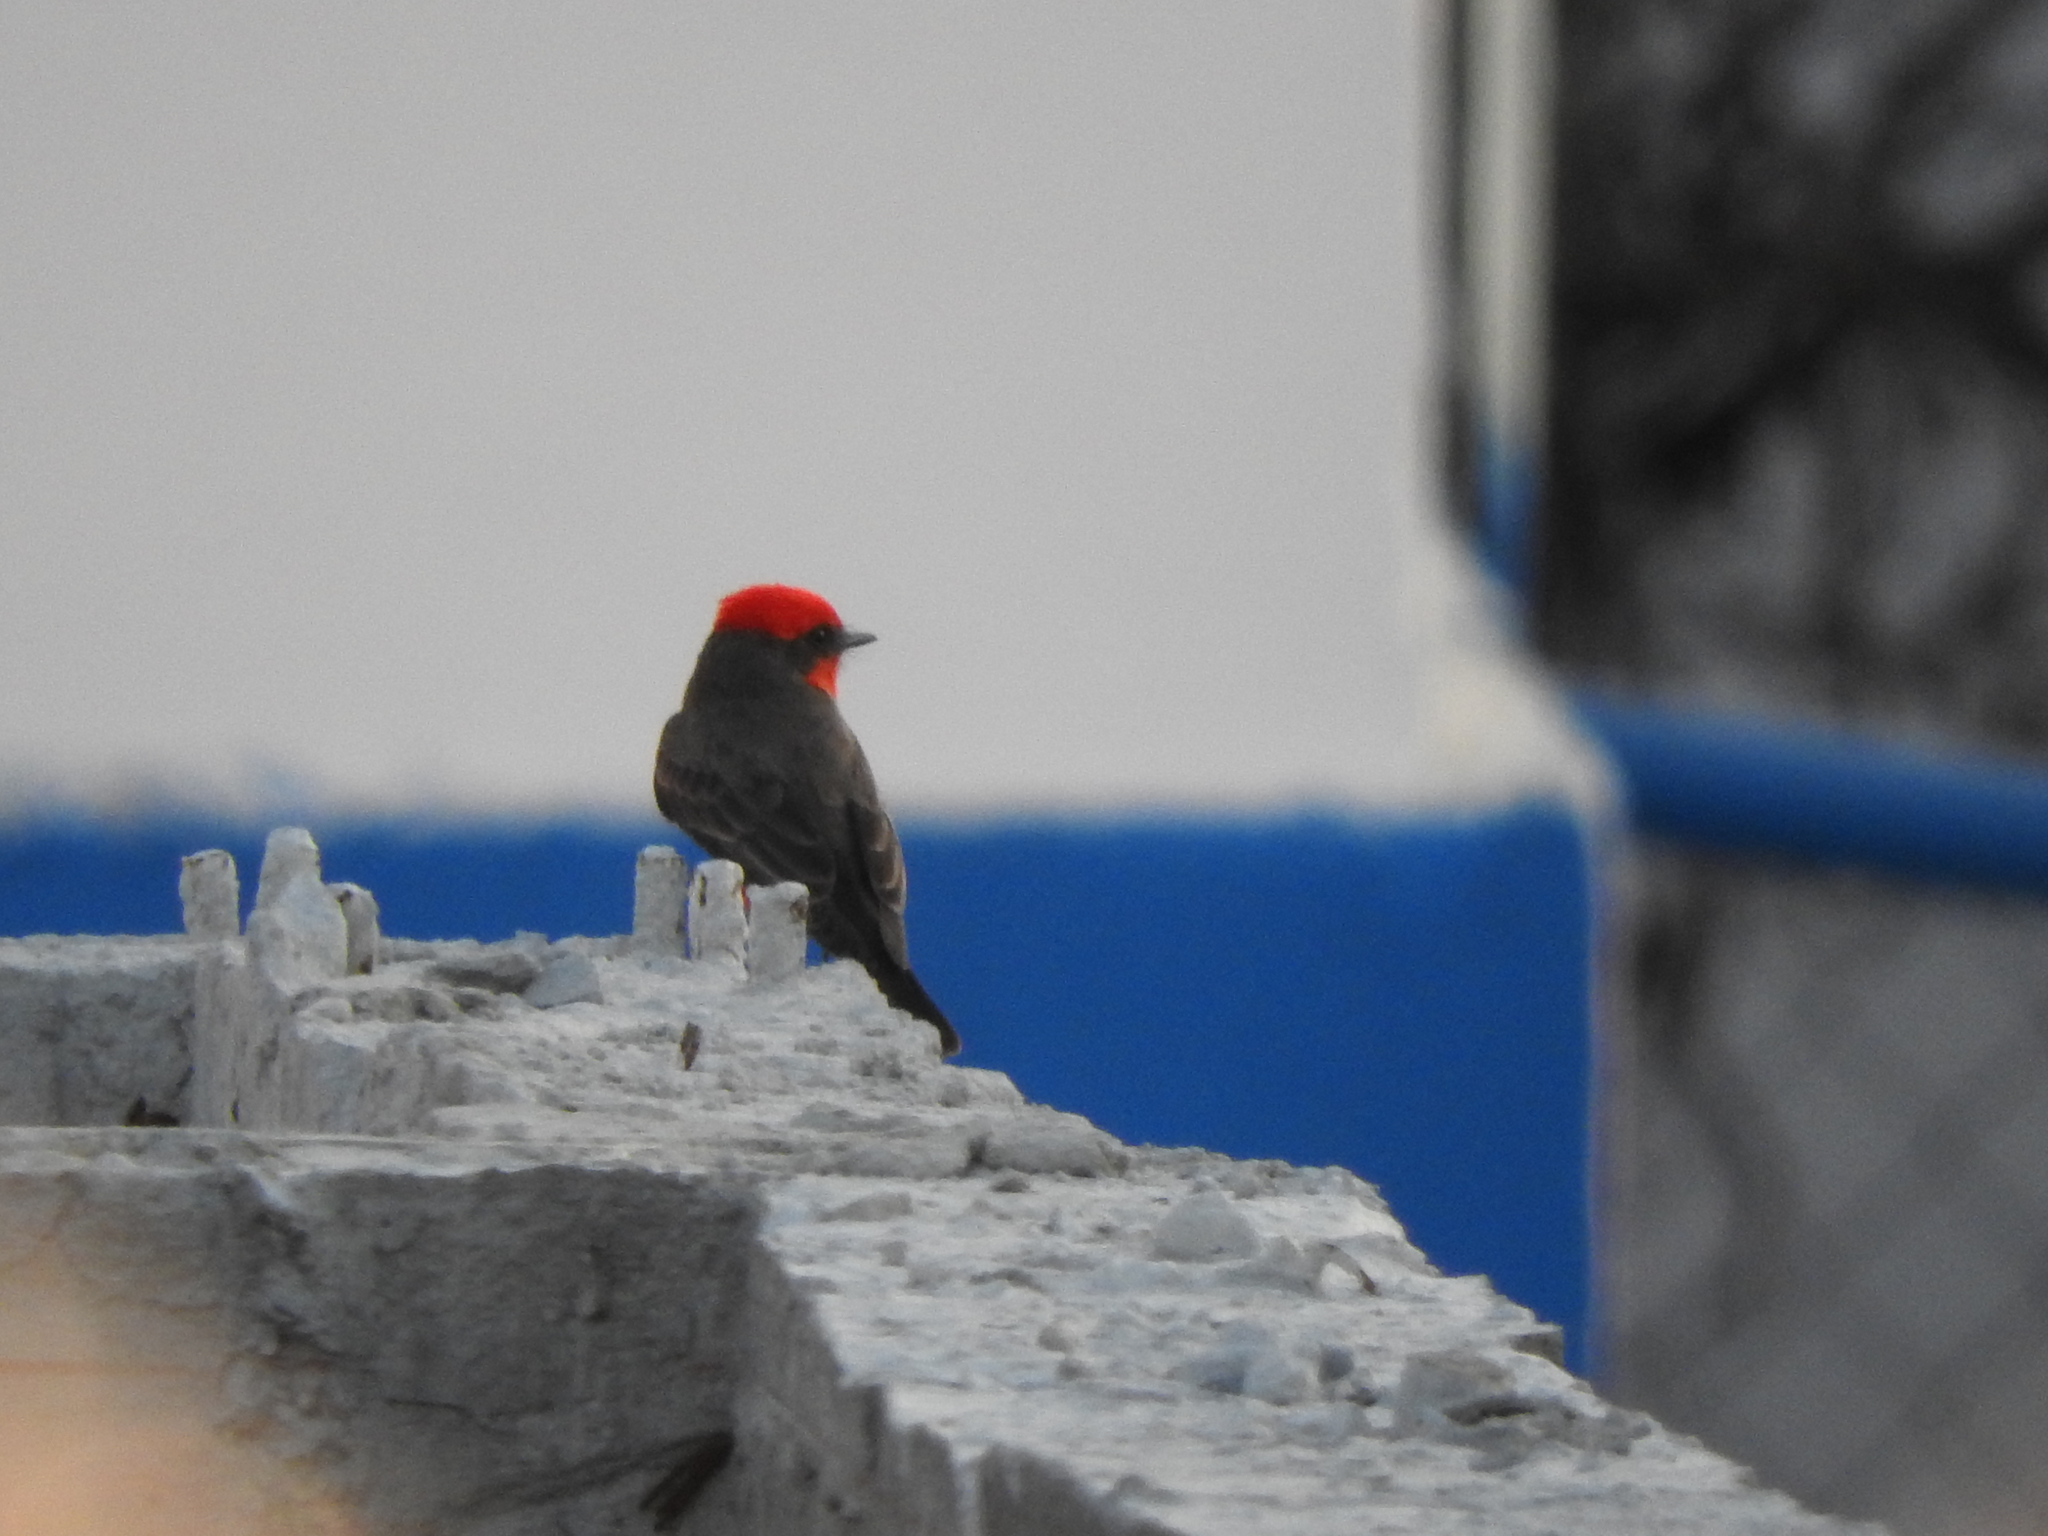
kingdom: Animalia
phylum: Chordata
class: Aves
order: Passeriformes
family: Tyrannidae
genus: Pyrocephalus
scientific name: Pyrocephalus rubinus
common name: Vermilion flycatcher
